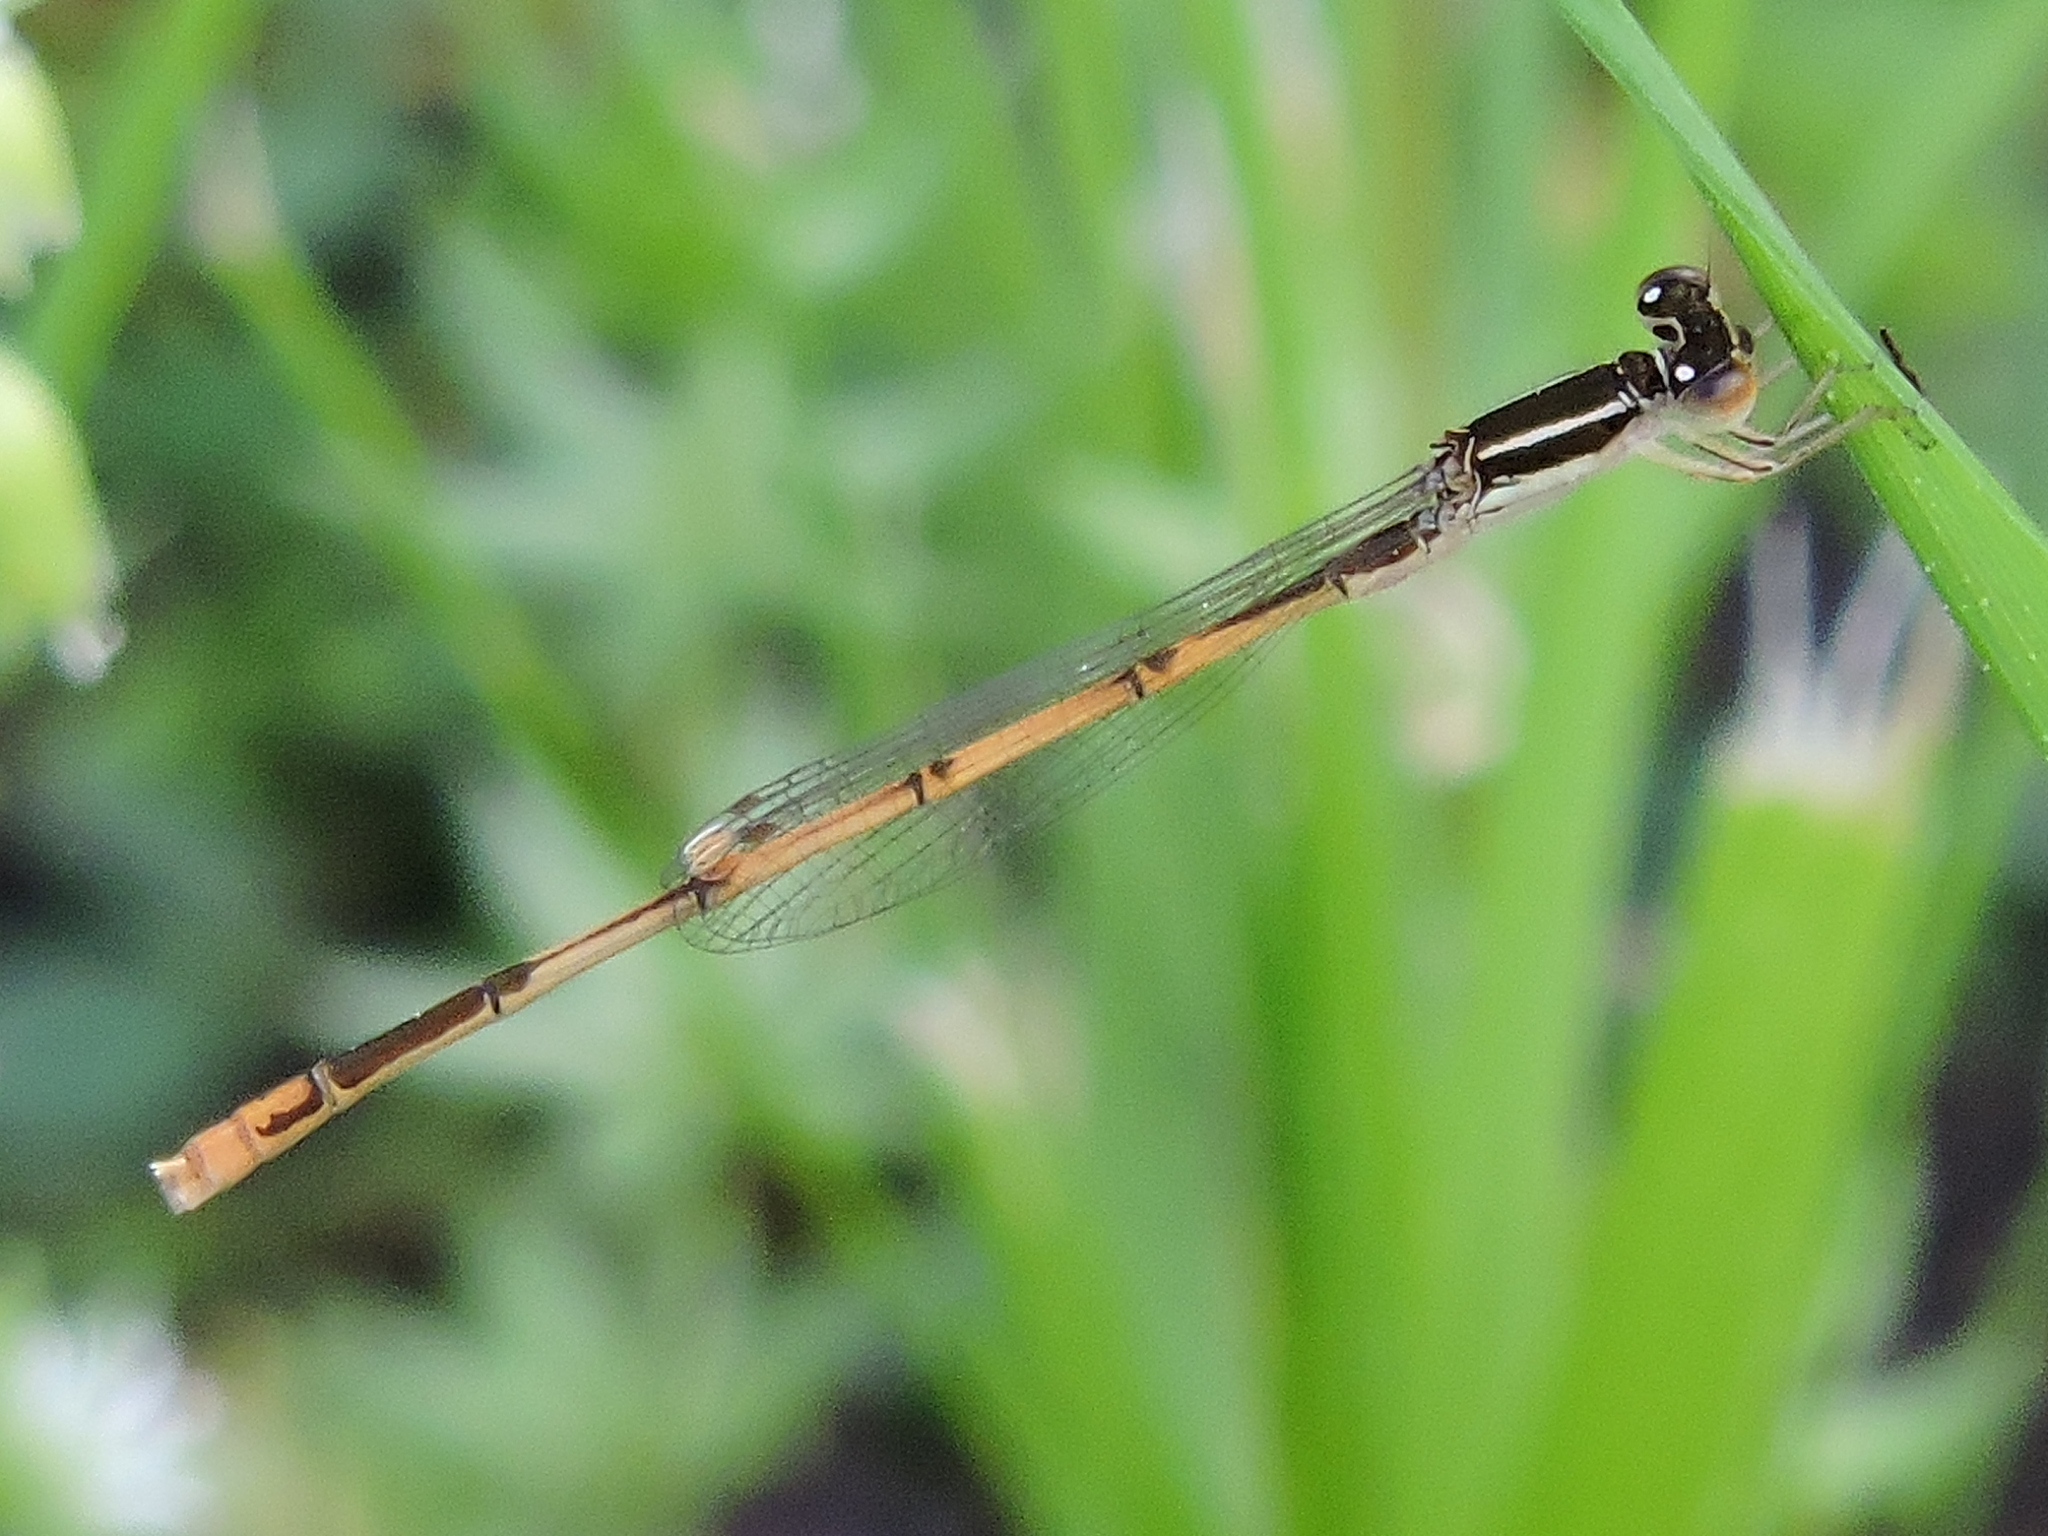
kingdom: Animalia
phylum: Arthropoda
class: Insecta
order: Odonata
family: Coenagrionidae
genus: Ischnura
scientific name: Ischnura hastata
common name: Citrine forktail
